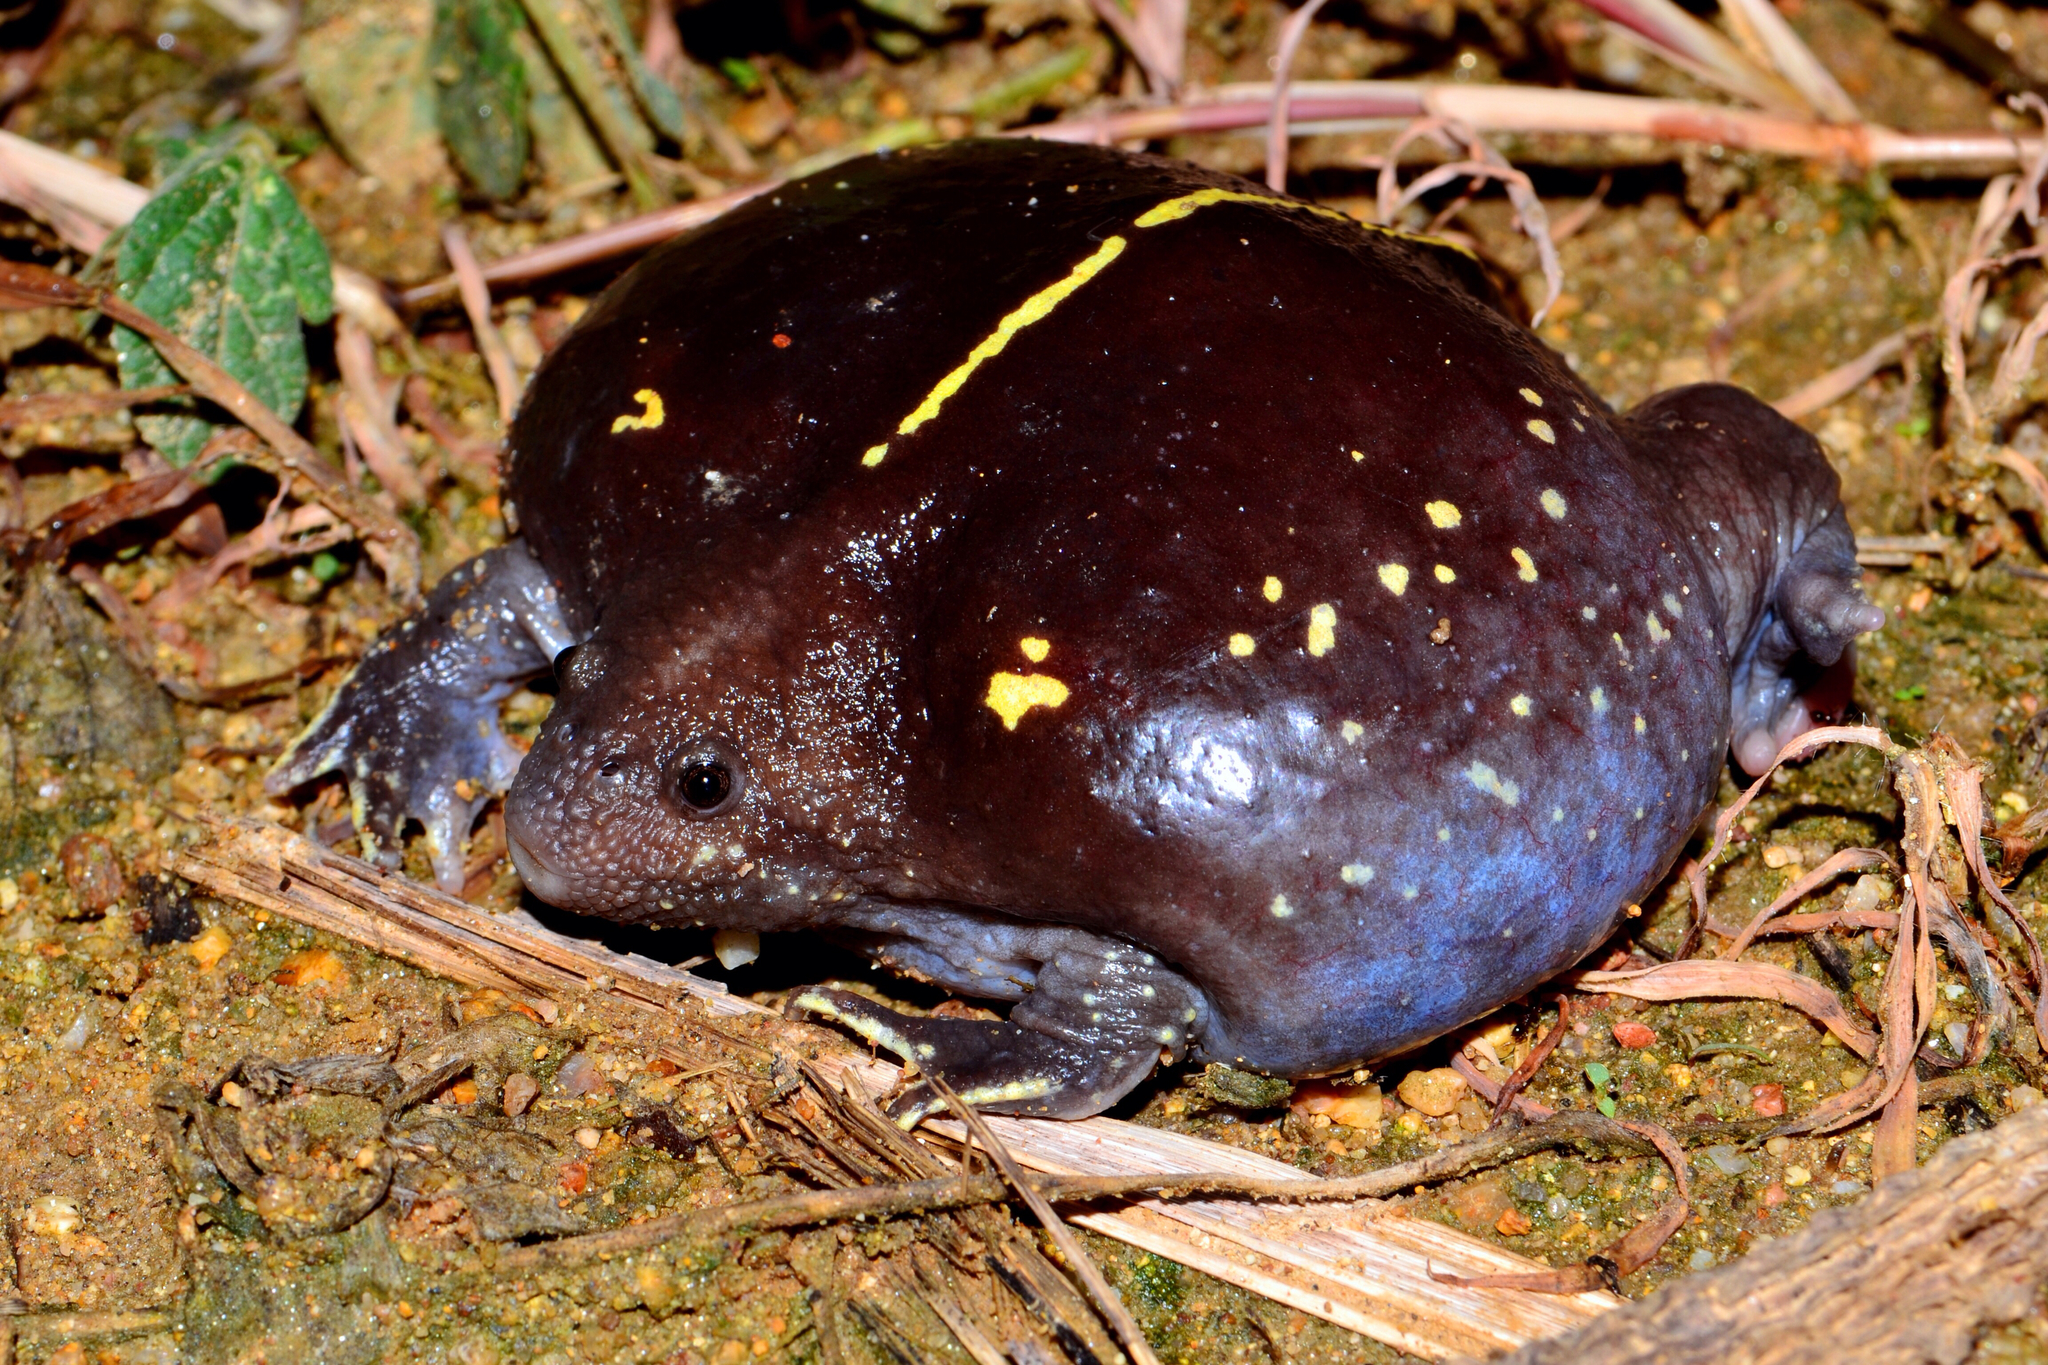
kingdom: Animalia
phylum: Chordata
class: Amphibia
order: Anura
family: Rhinophrynidae
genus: Rhinophrynus
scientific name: Rhinophrynus dorsalis
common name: Mexican burrowing toad
